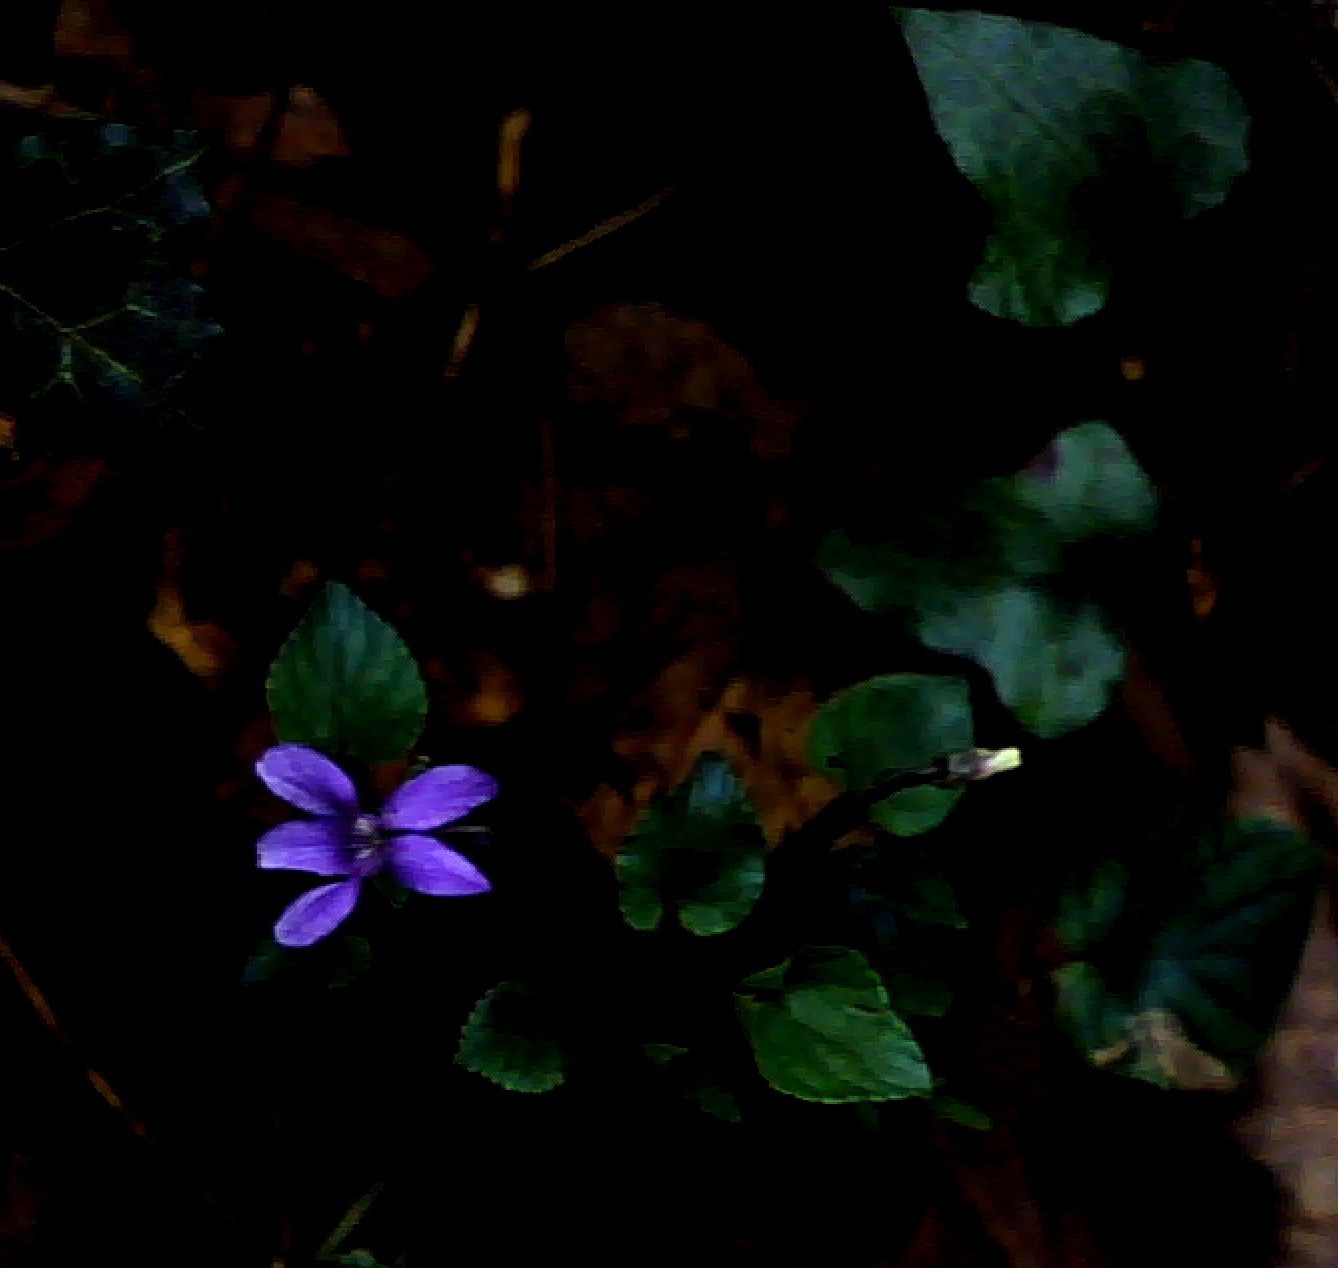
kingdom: Plantae
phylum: Tracheophyta
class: Magnoliopsida
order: Malpighiales
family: Violaceae
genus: Viola
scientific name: Viola reichenbachiana
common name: Early dog-violet
